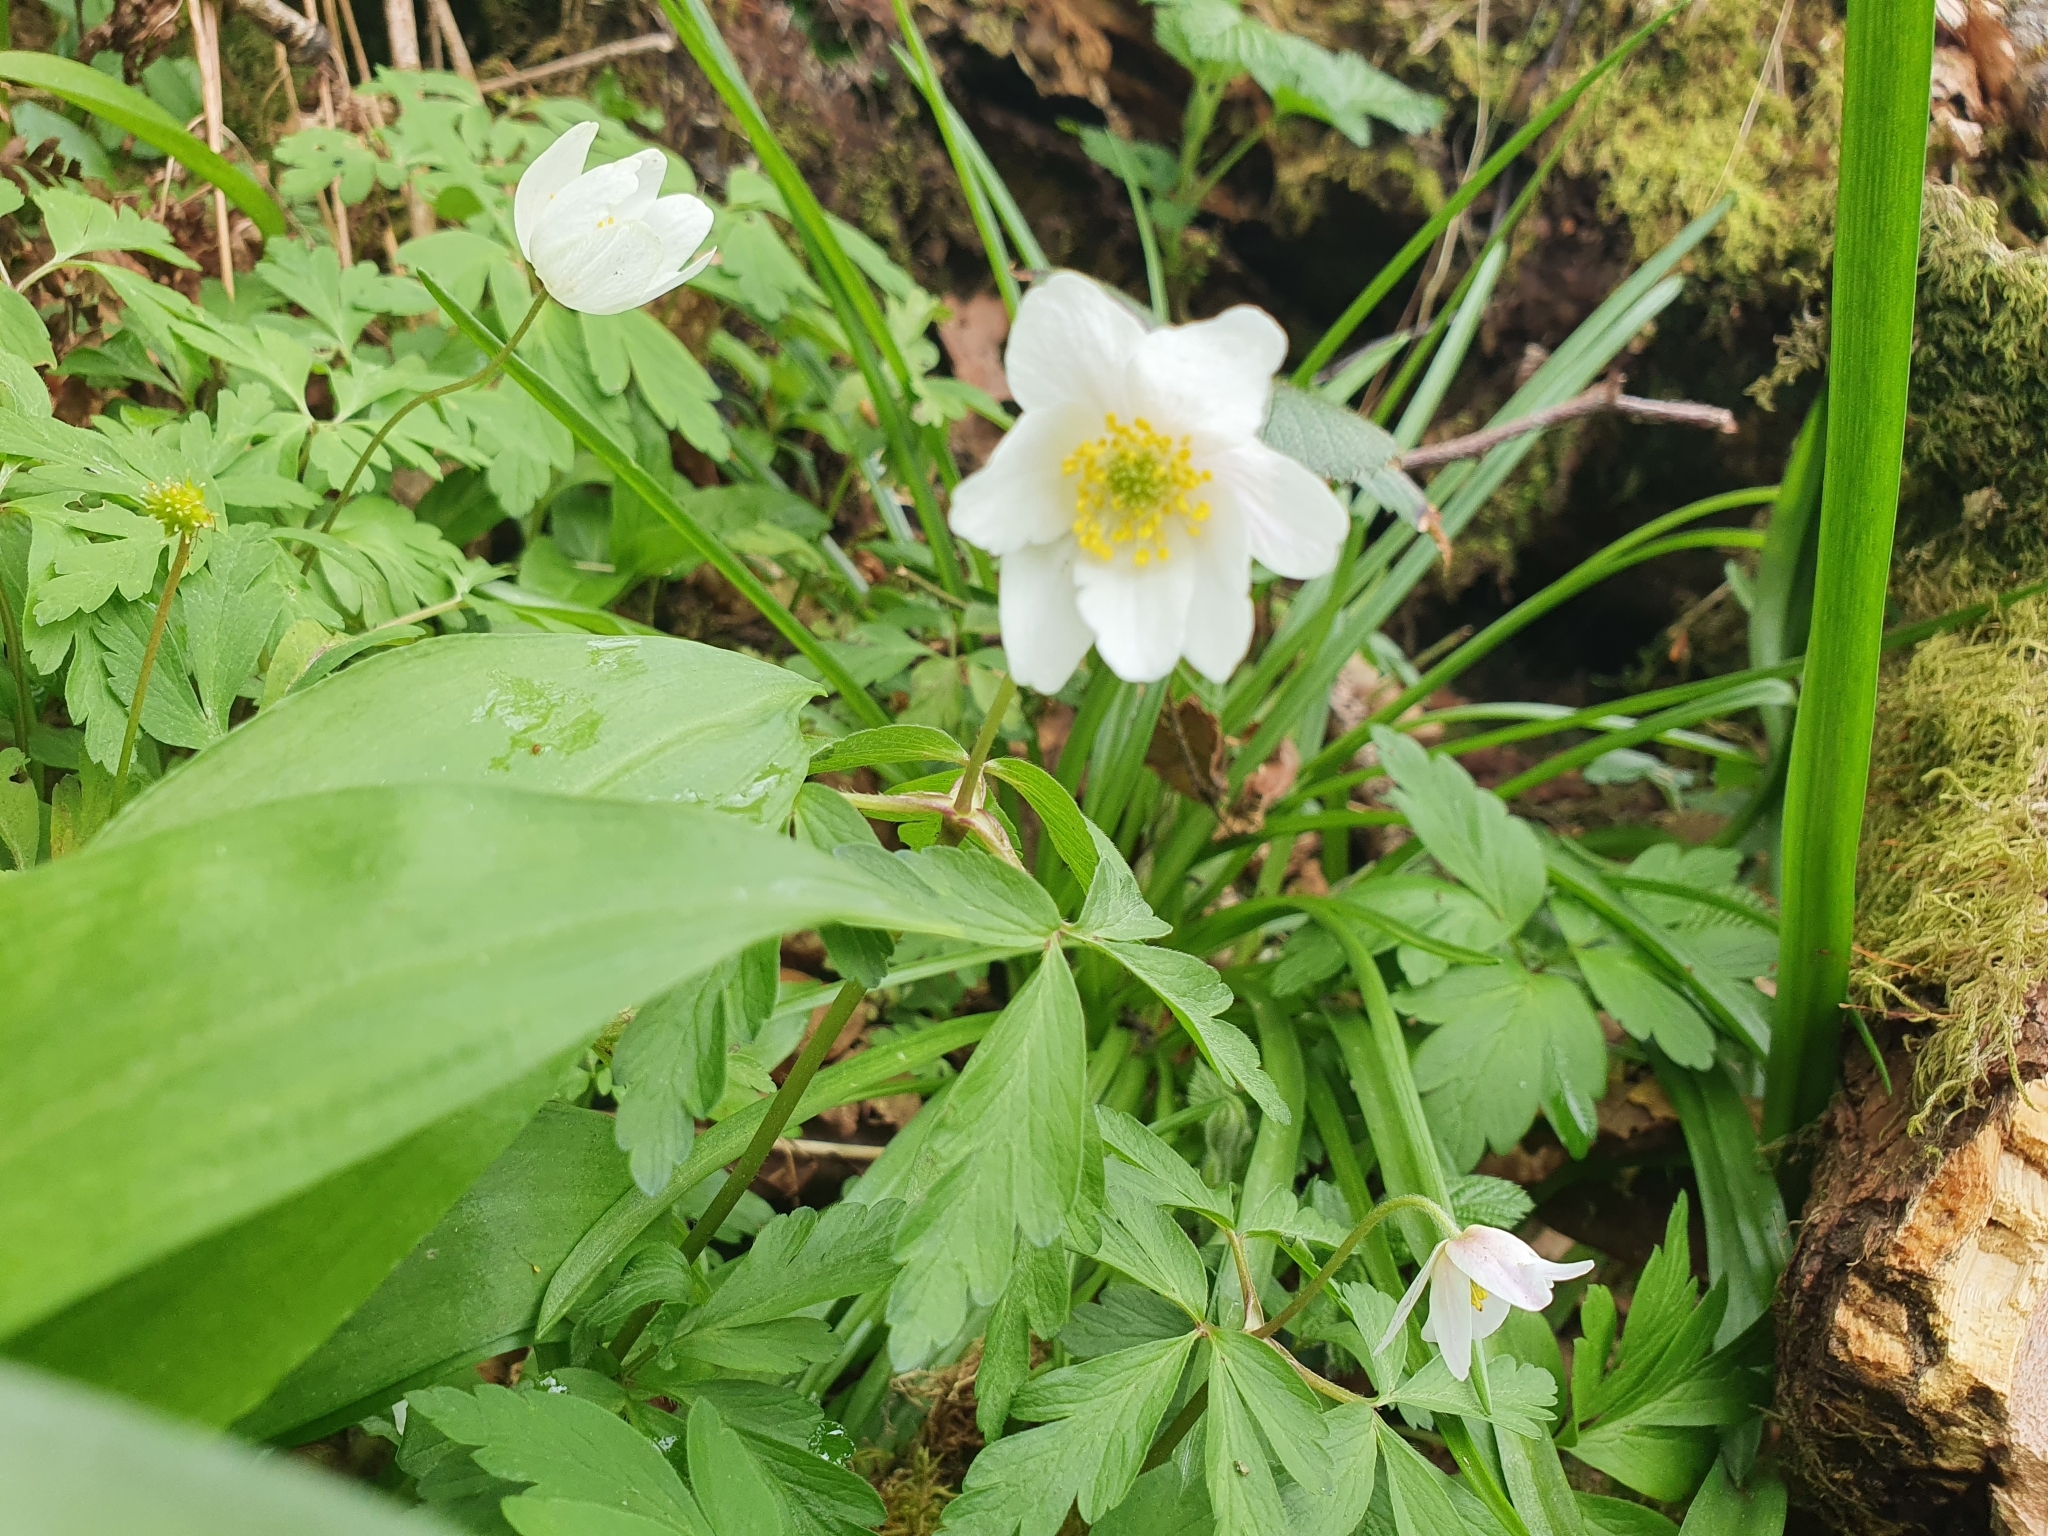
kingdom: Plantae
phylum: Tracheophyta
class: Magnoliopsida
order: Ranunculales
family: Ranunculaceae
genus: Anemone
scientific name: Anemone nemorosa
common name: Wood anemone
